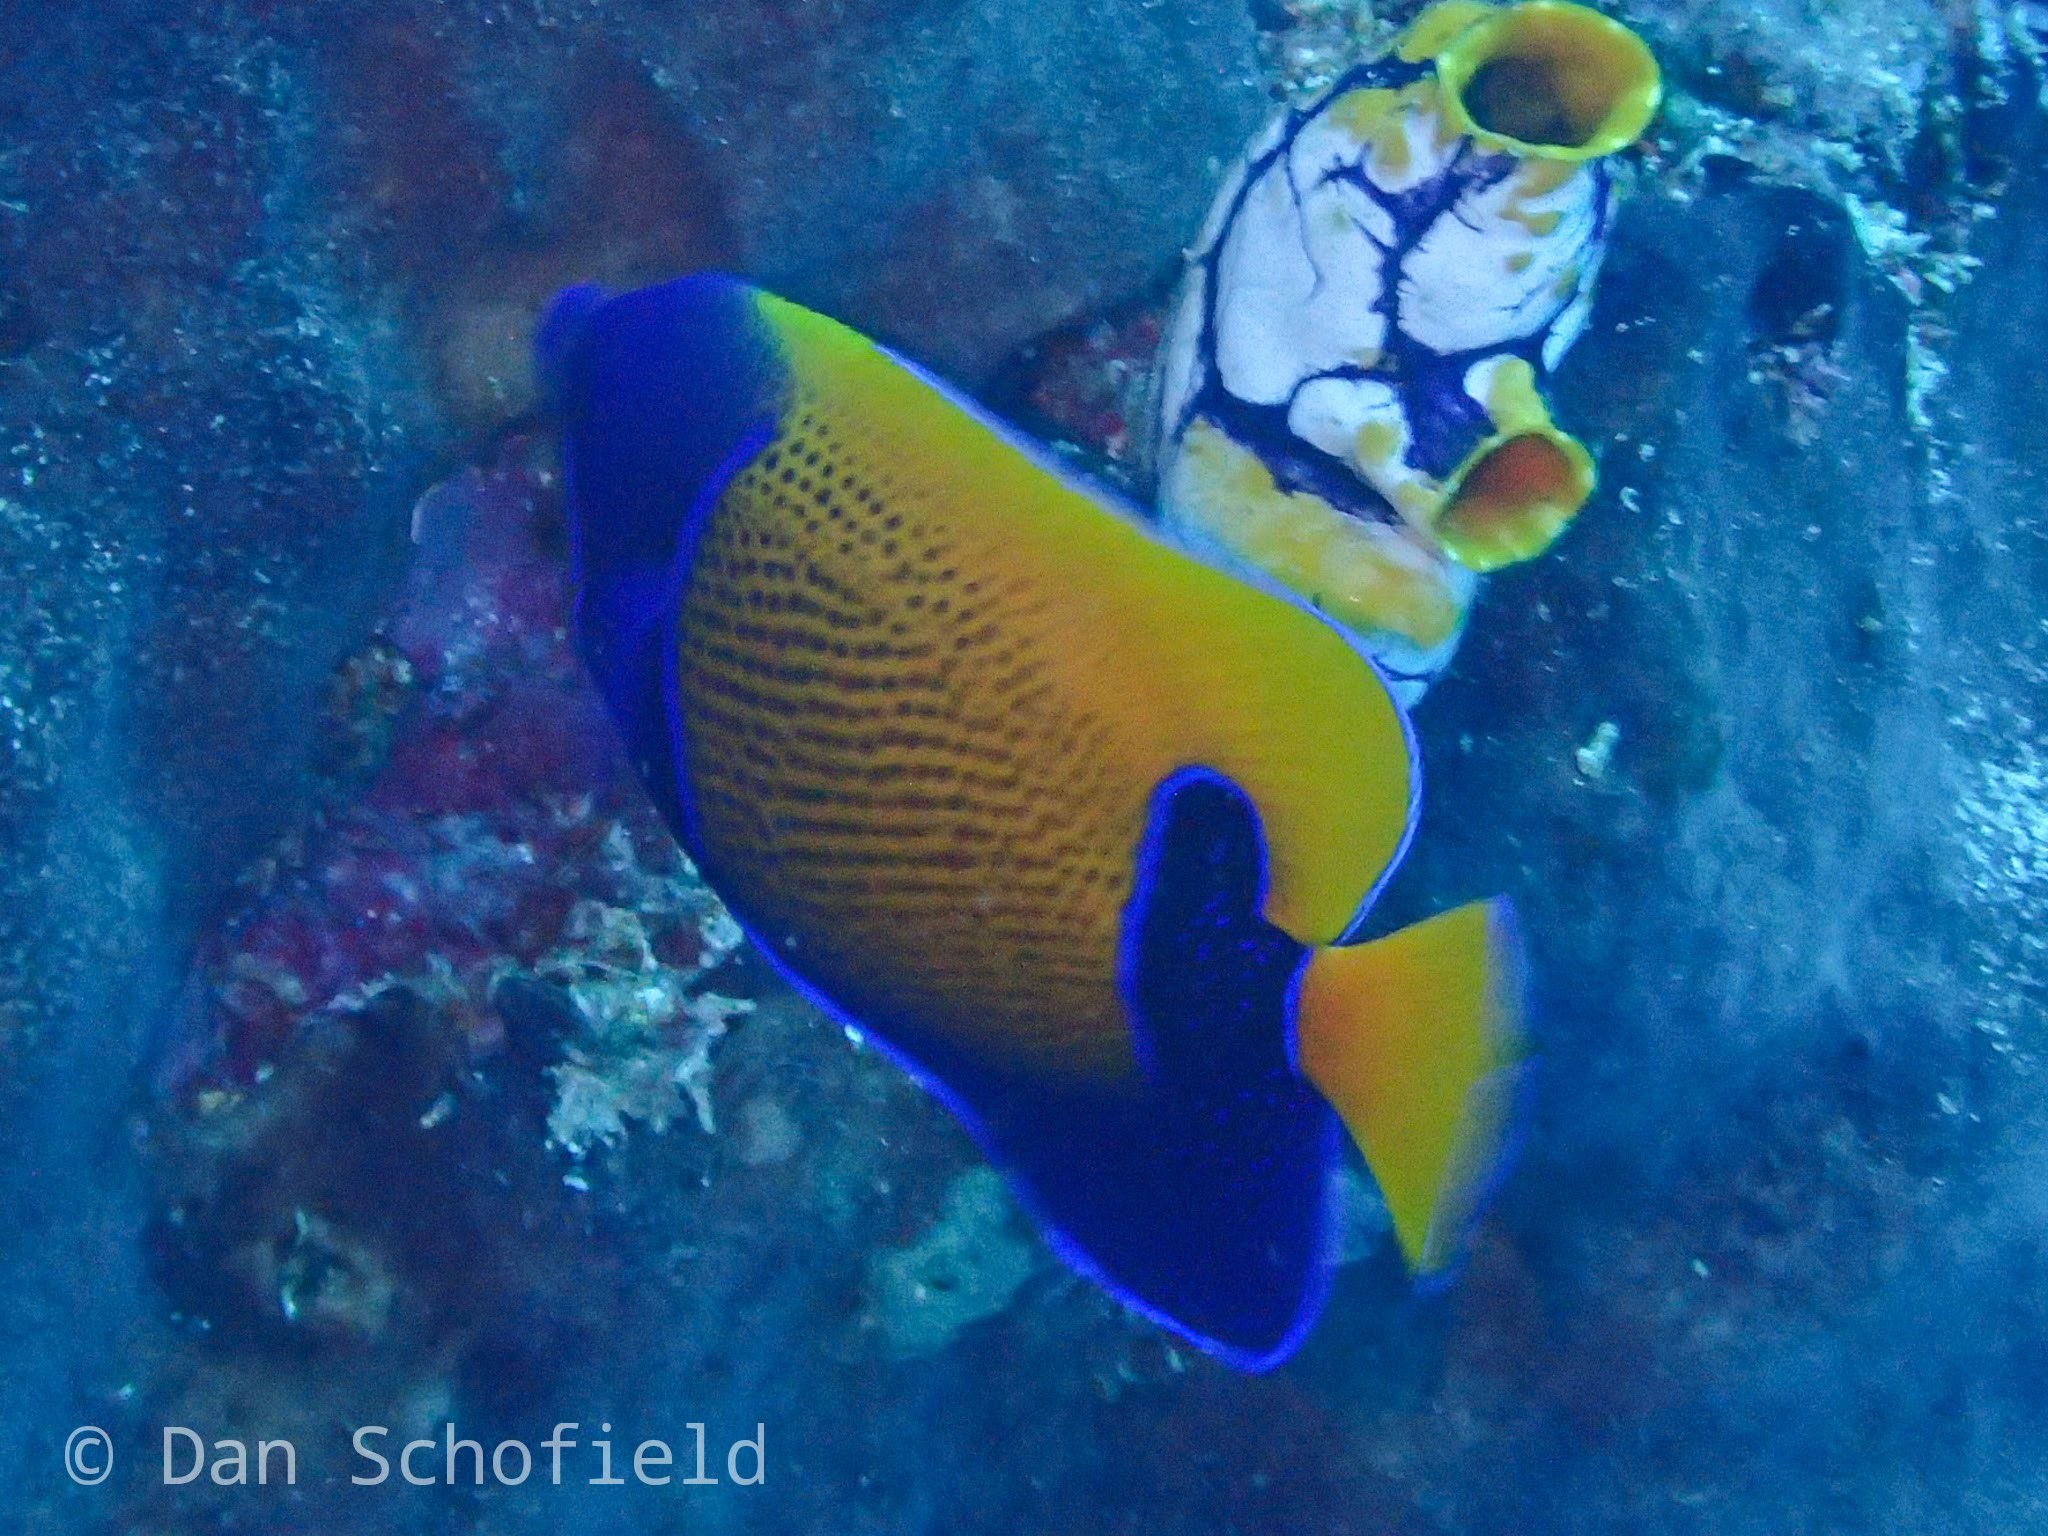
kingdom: Animalia
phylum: Chordata
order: Perciformes
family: Pomacanthidae
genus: Pomacanthus
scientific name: Pomacanthus navarchus
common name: Blue-girdled angelfish
